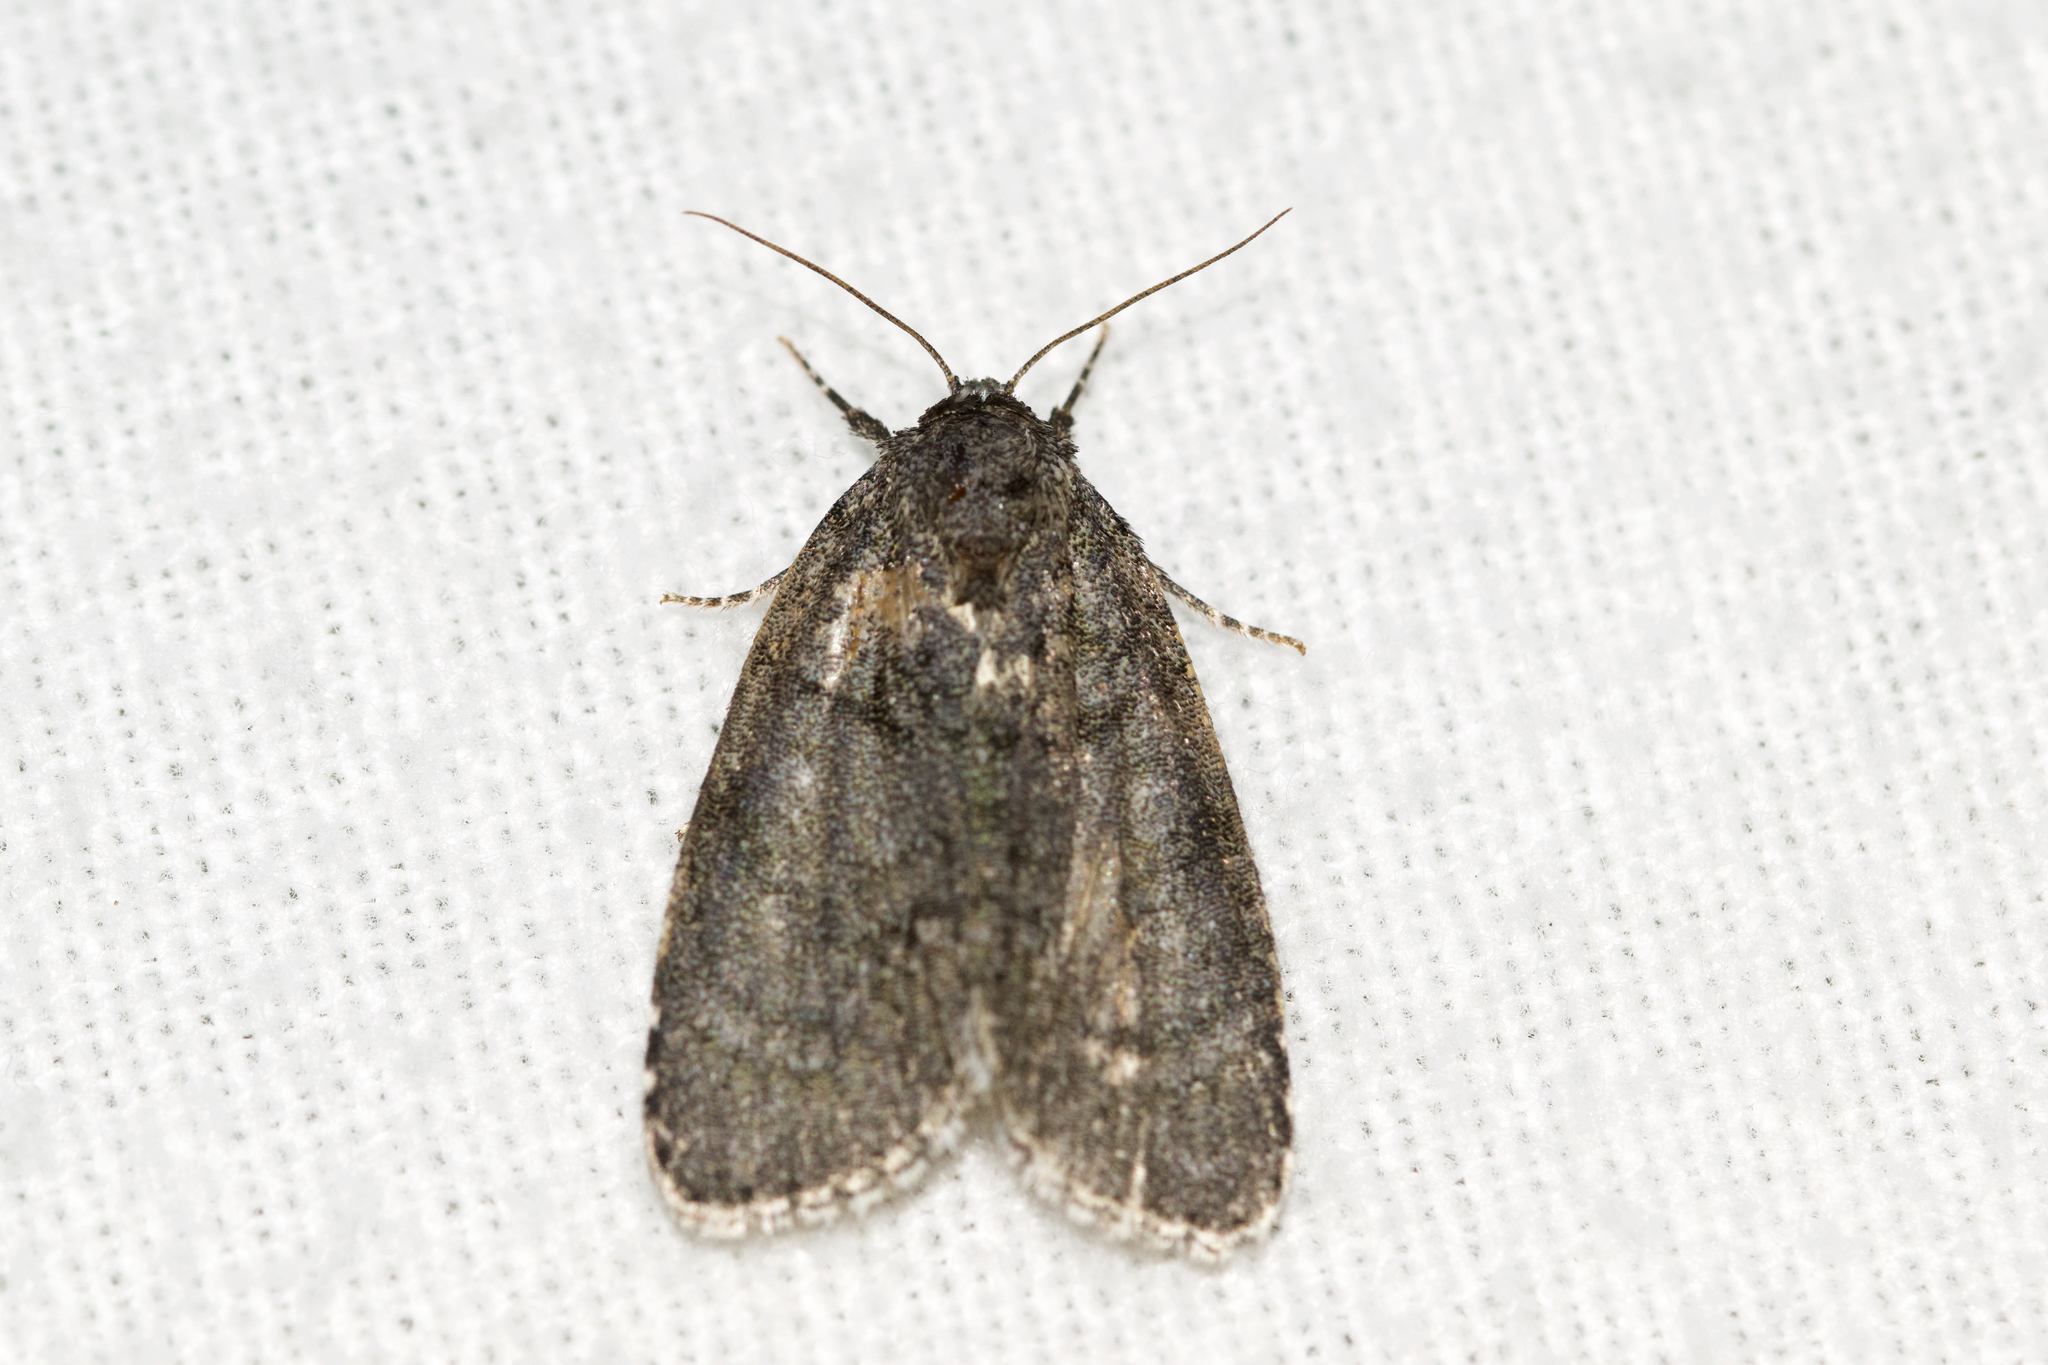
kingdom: Animalia
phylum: Arthropoda
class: Insecta
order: Lepidoptera
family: Noctuidae
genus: Acronicta
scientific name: Acronicta retardata
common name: Maple dagger
